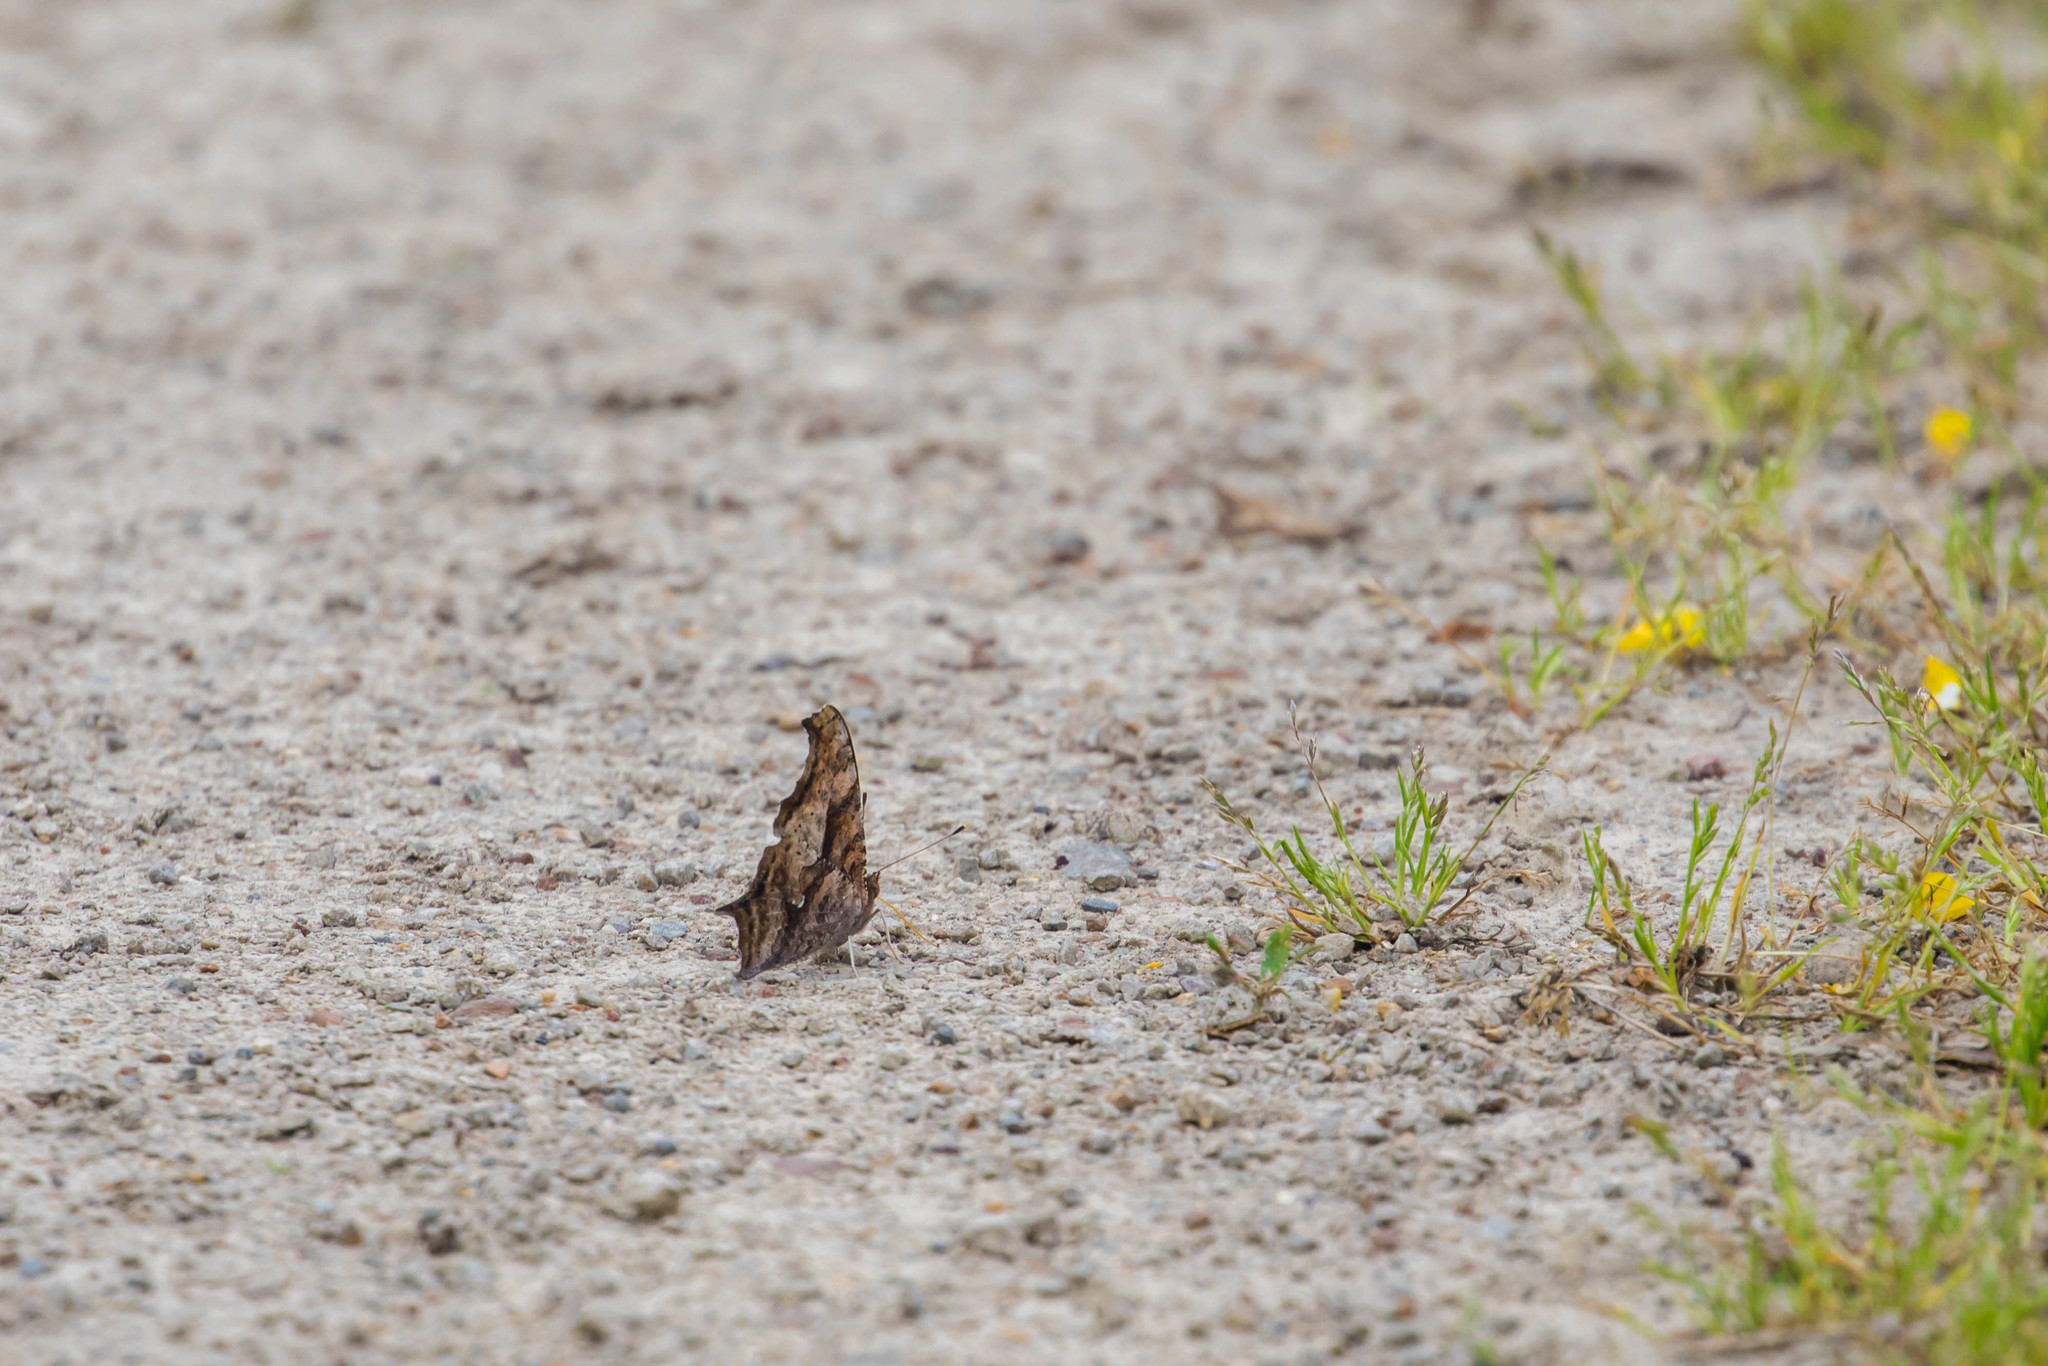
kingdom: Animalia
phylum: Arthropoda
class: Insecta
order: Lepidoptera
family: Nymphalidae
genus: Polygonia
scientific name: Polygonia interrogationis
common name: Question mark
